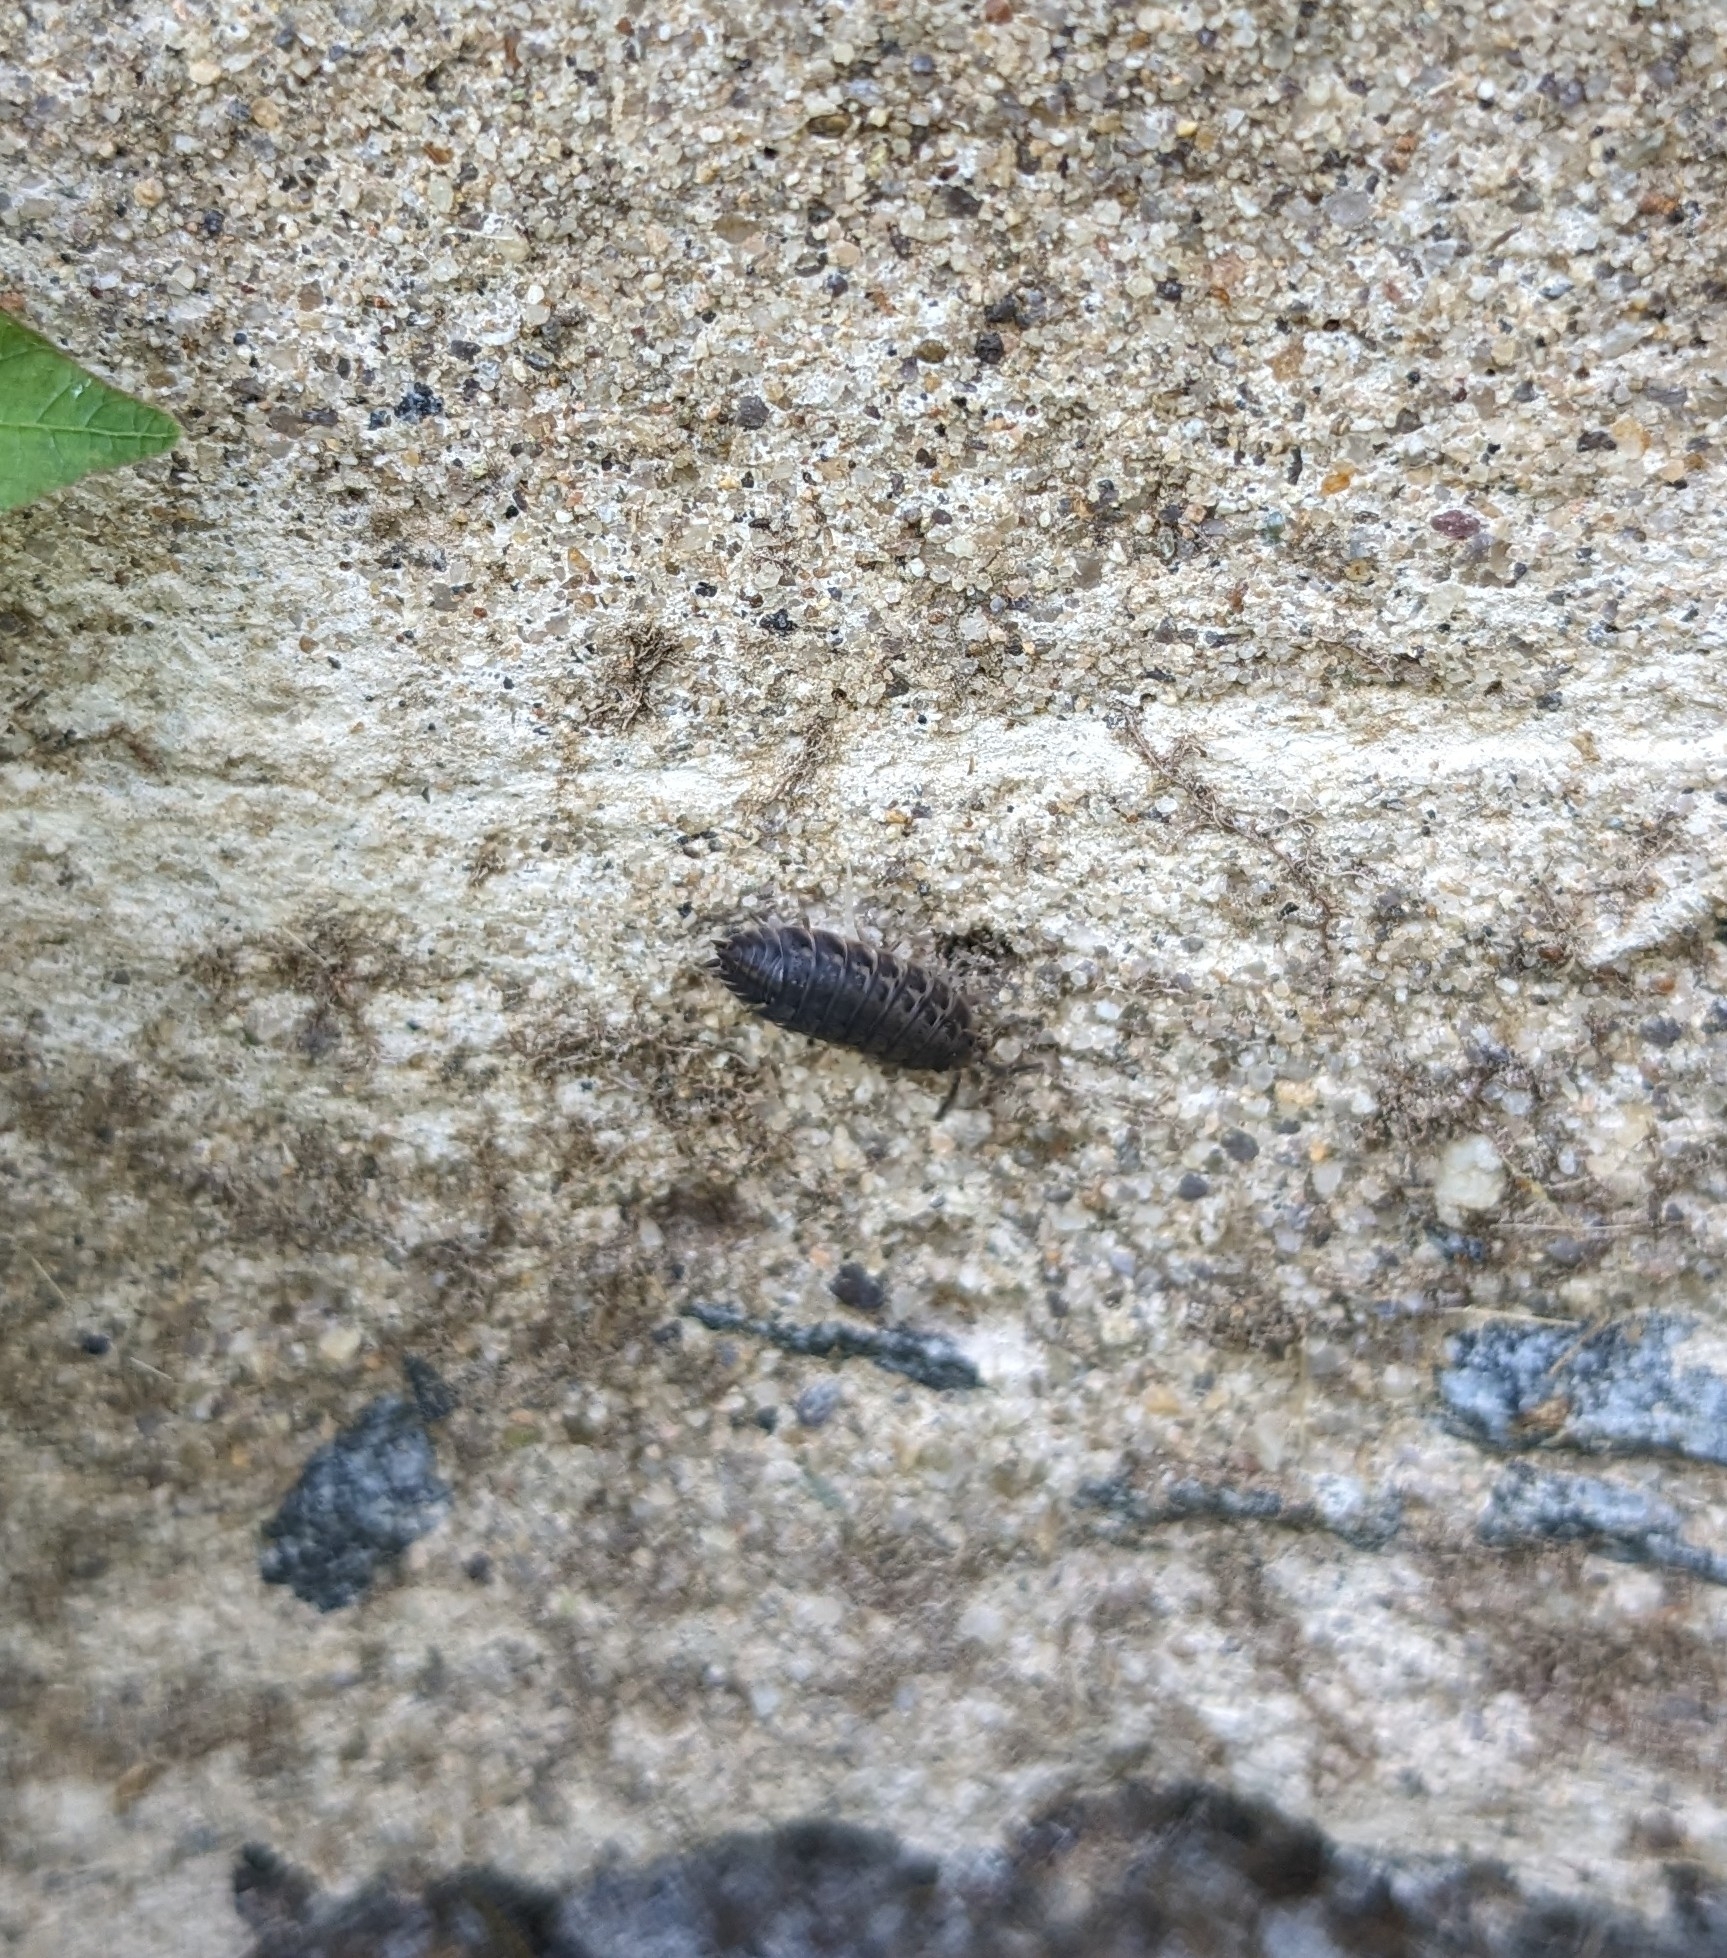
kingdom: Animalia
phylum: Arthropoda
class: Malacostraca
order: Isopoda
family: Trachelipodidae
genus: Trachelipus
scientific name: Trachelipus rathkii
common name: Isopod
